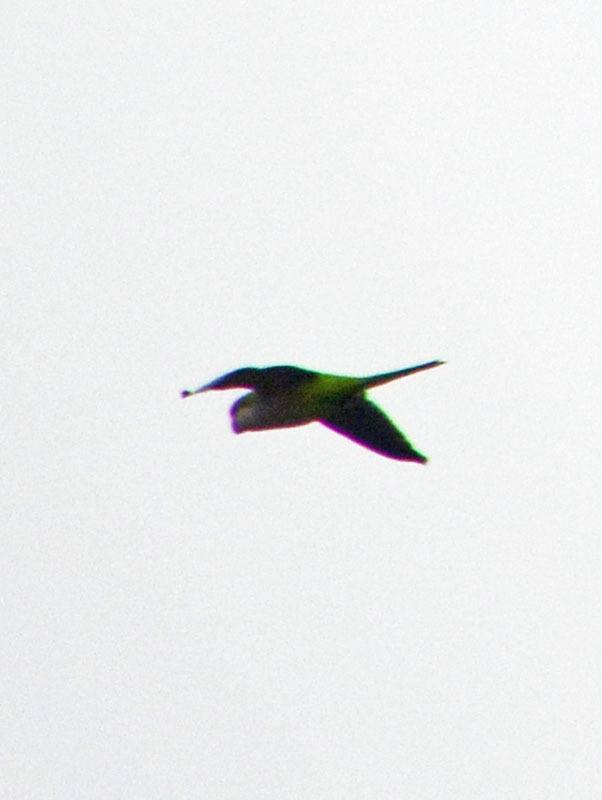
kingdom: Animalia
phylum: Chordata
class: Aves
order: Psittaciformes
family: Psittacidae
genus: Myiopsitta
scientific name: Myiopsitta monachus
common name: Monk parakeet
